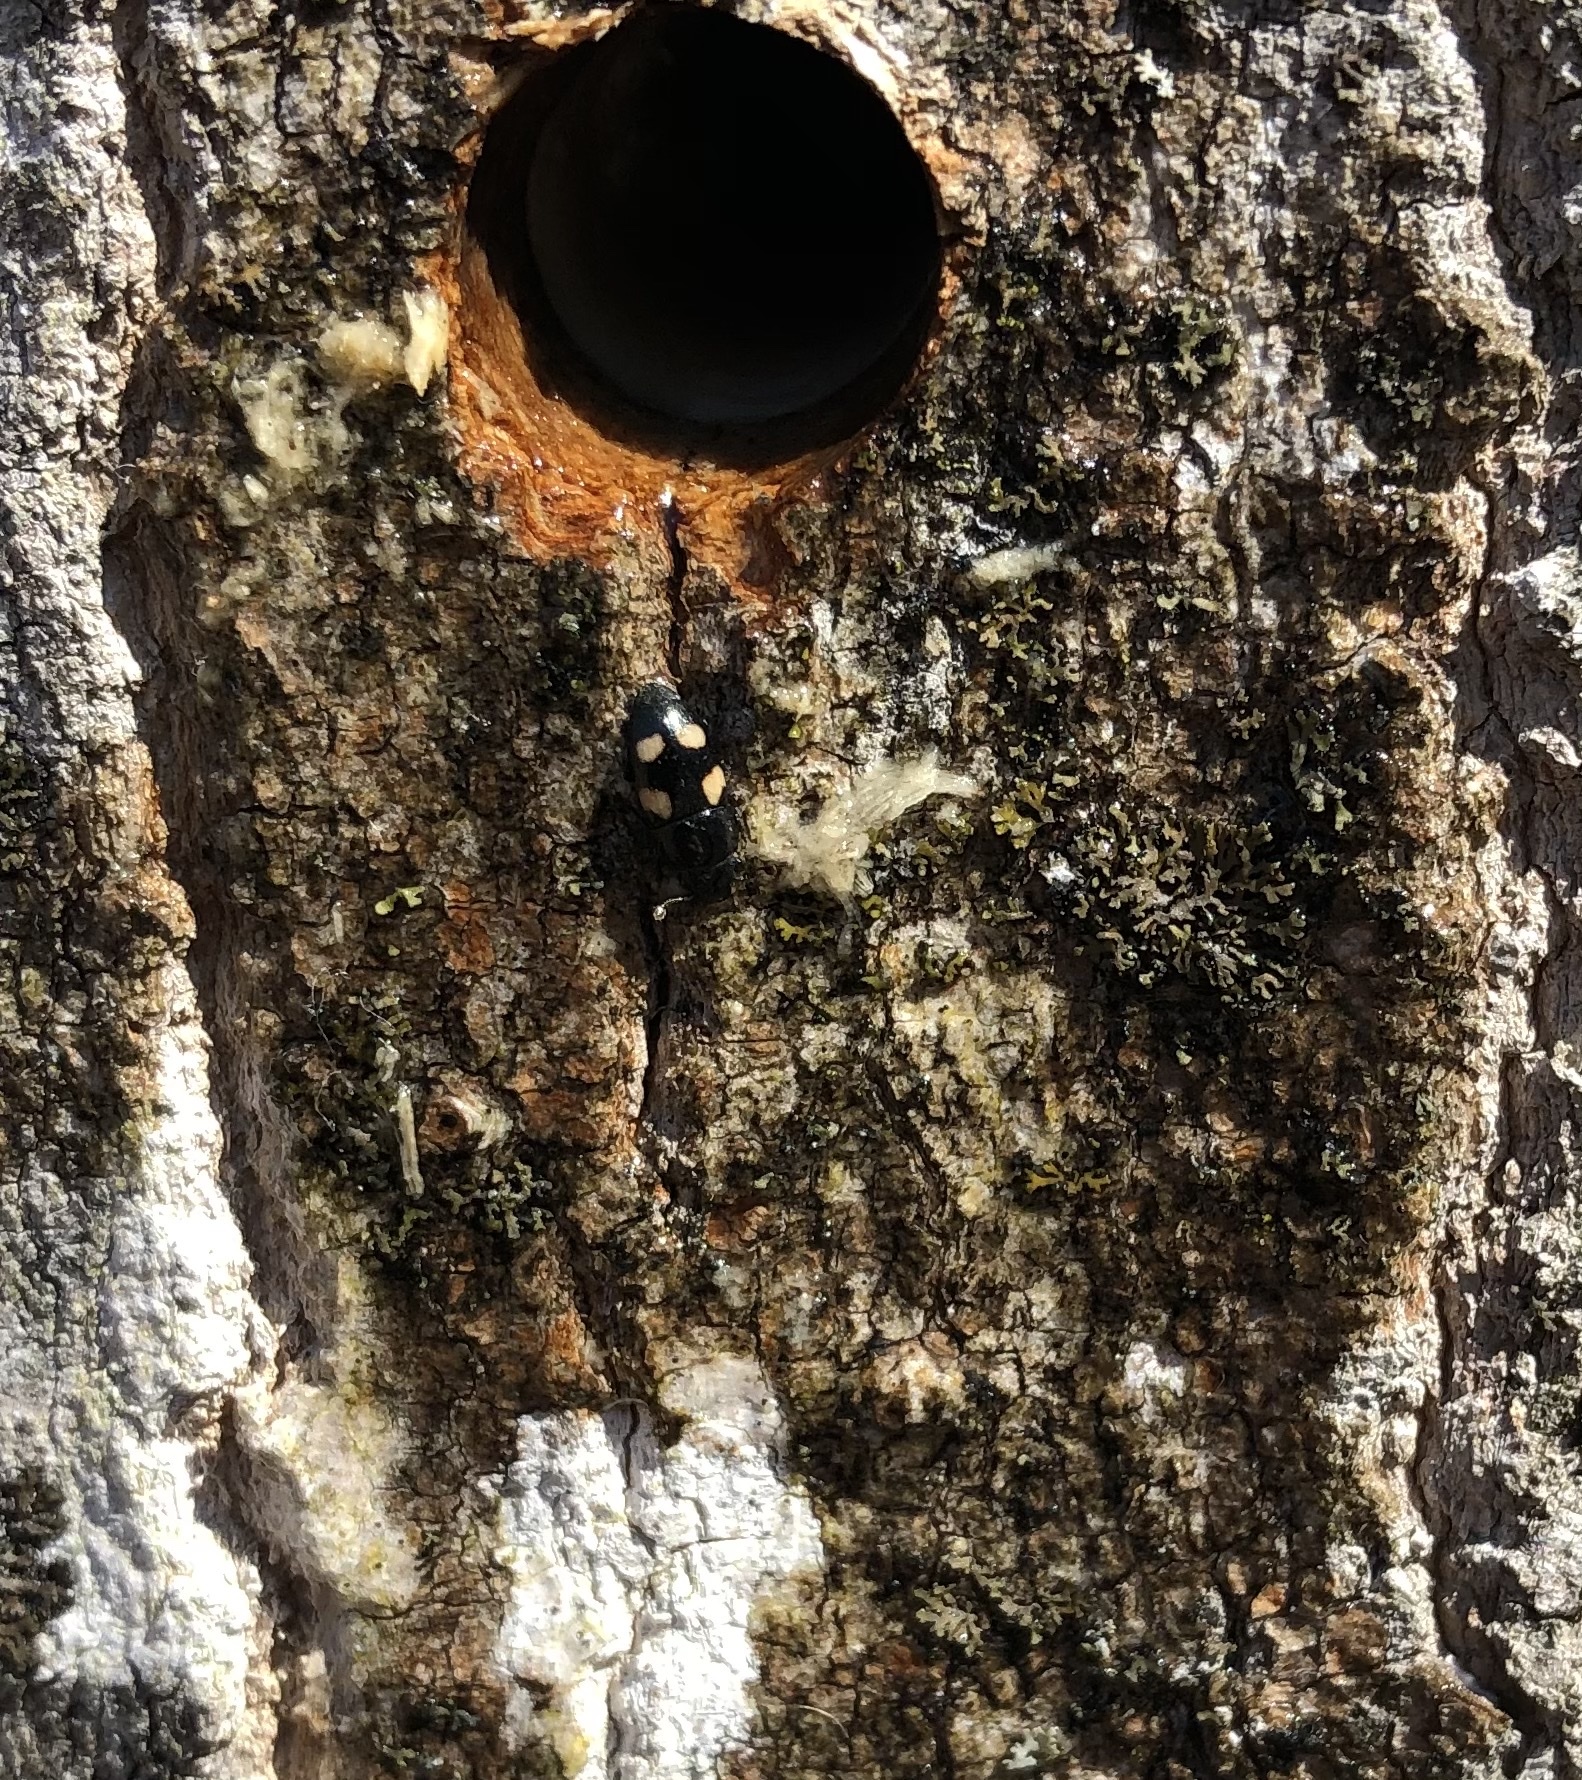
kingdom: Animalia
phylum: Arthropoda
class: Insecta
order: Coleoptera
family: Nitidulidae
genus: Glischrochilus
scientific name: Glischrochilus quadrisignatus
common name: Picnic beetle
